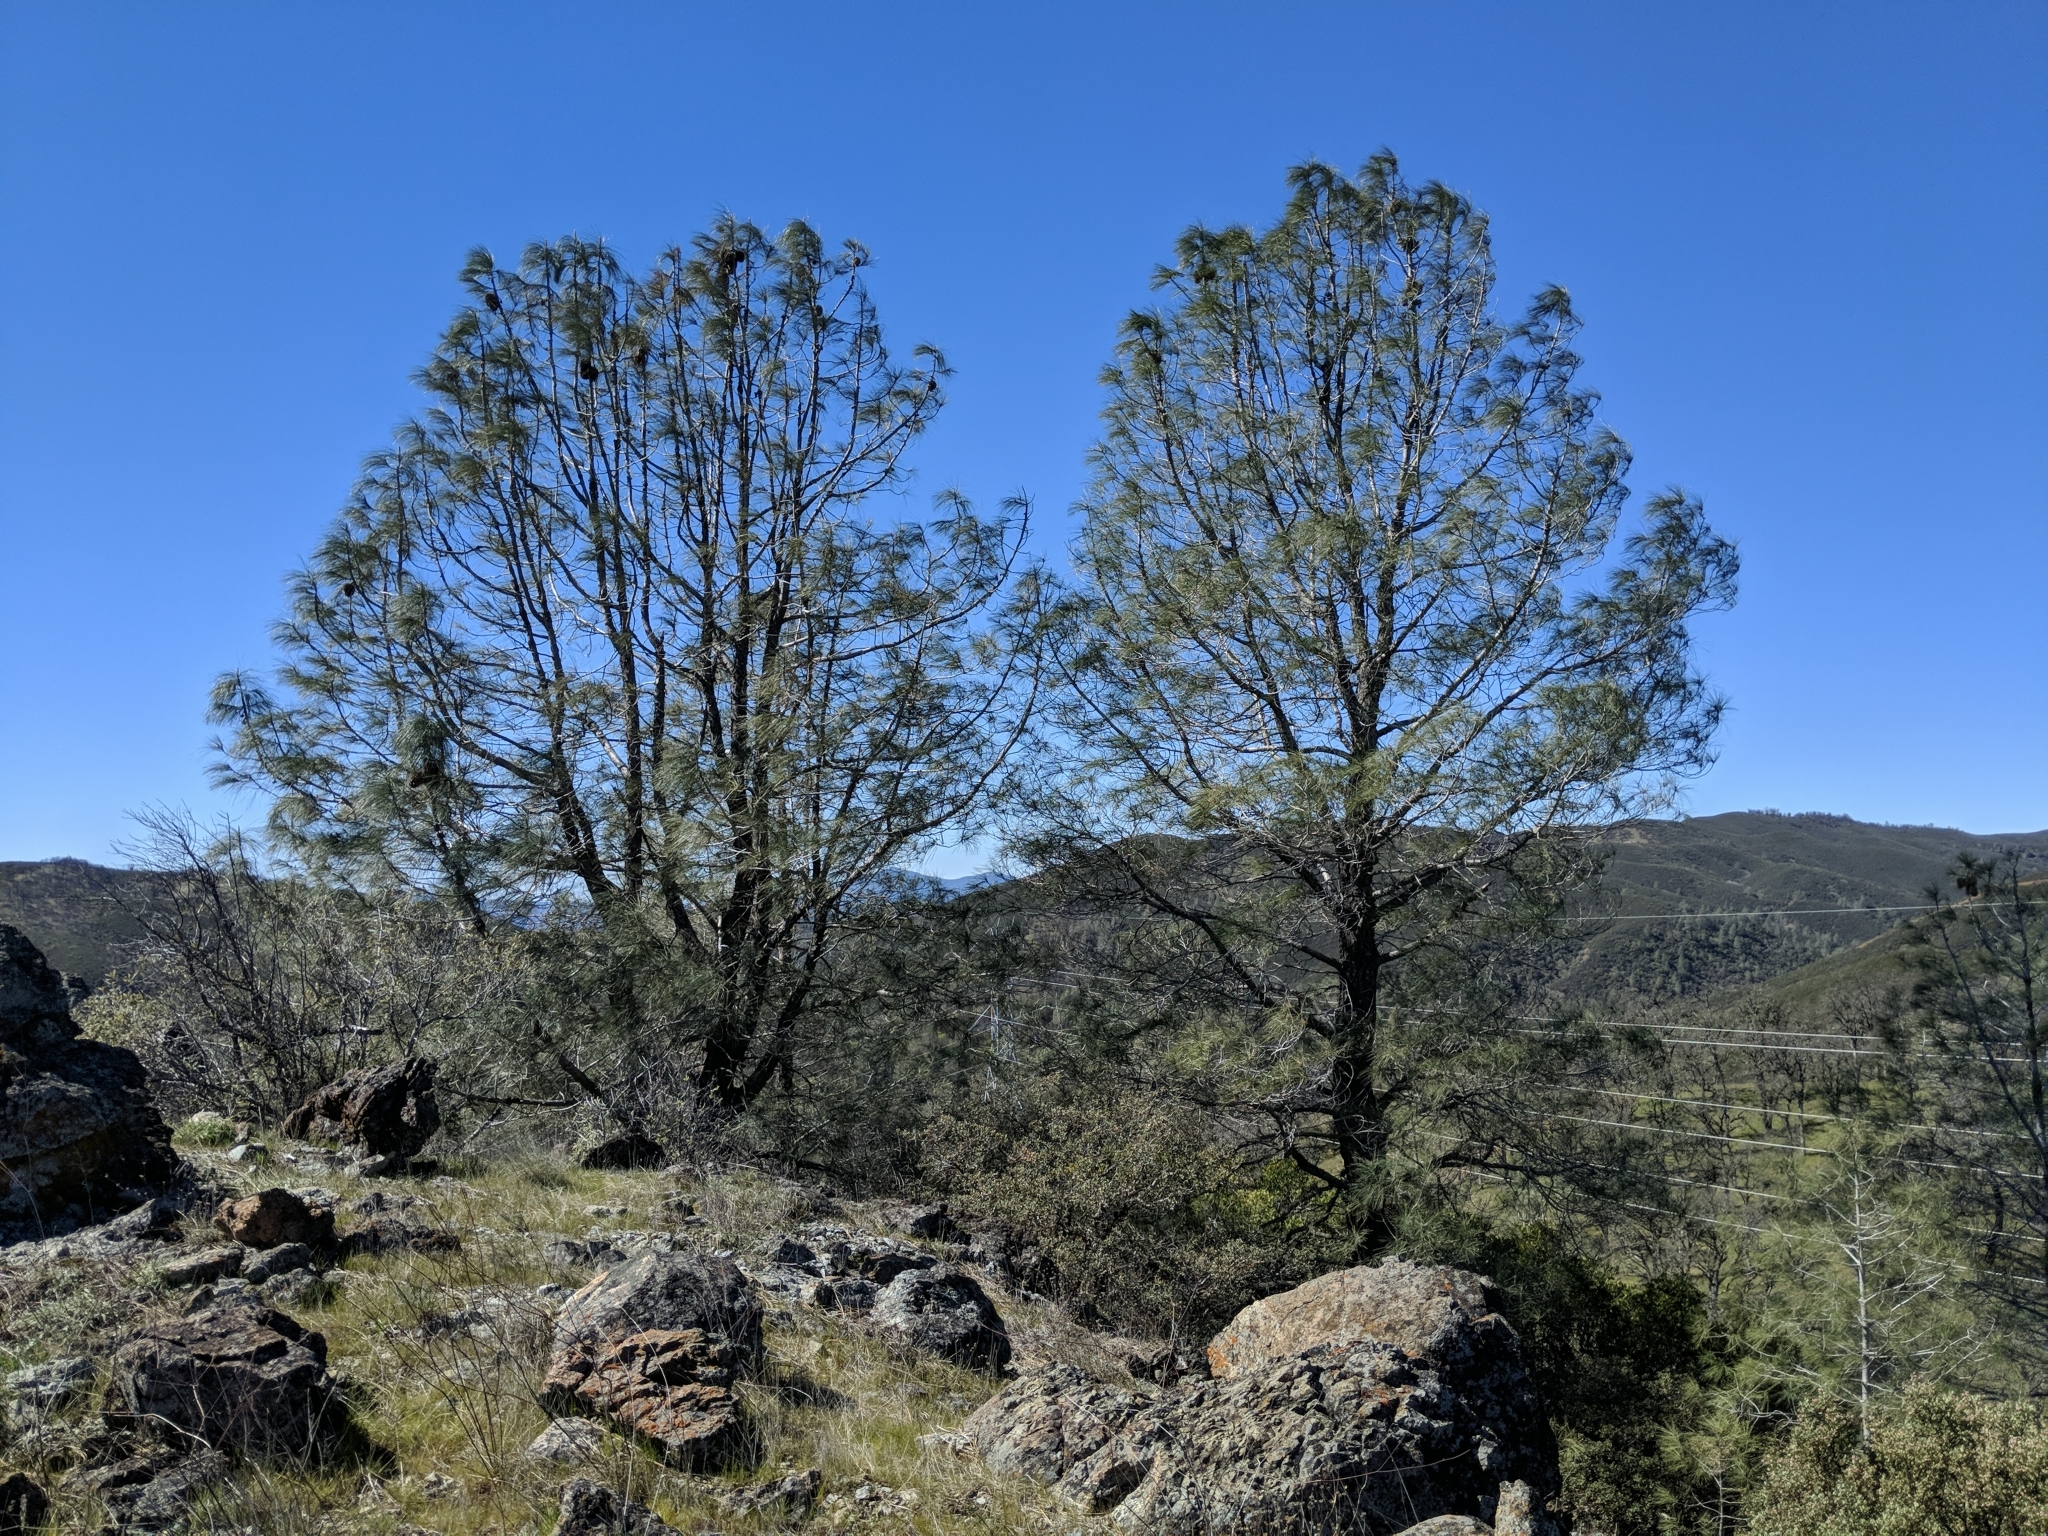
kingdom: Plantae
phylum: Tracheophyta
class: Pinopsida
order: Pinales
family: Pinaceae
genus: Pinus
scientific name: Pinus sabiniana
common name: Bull pine
